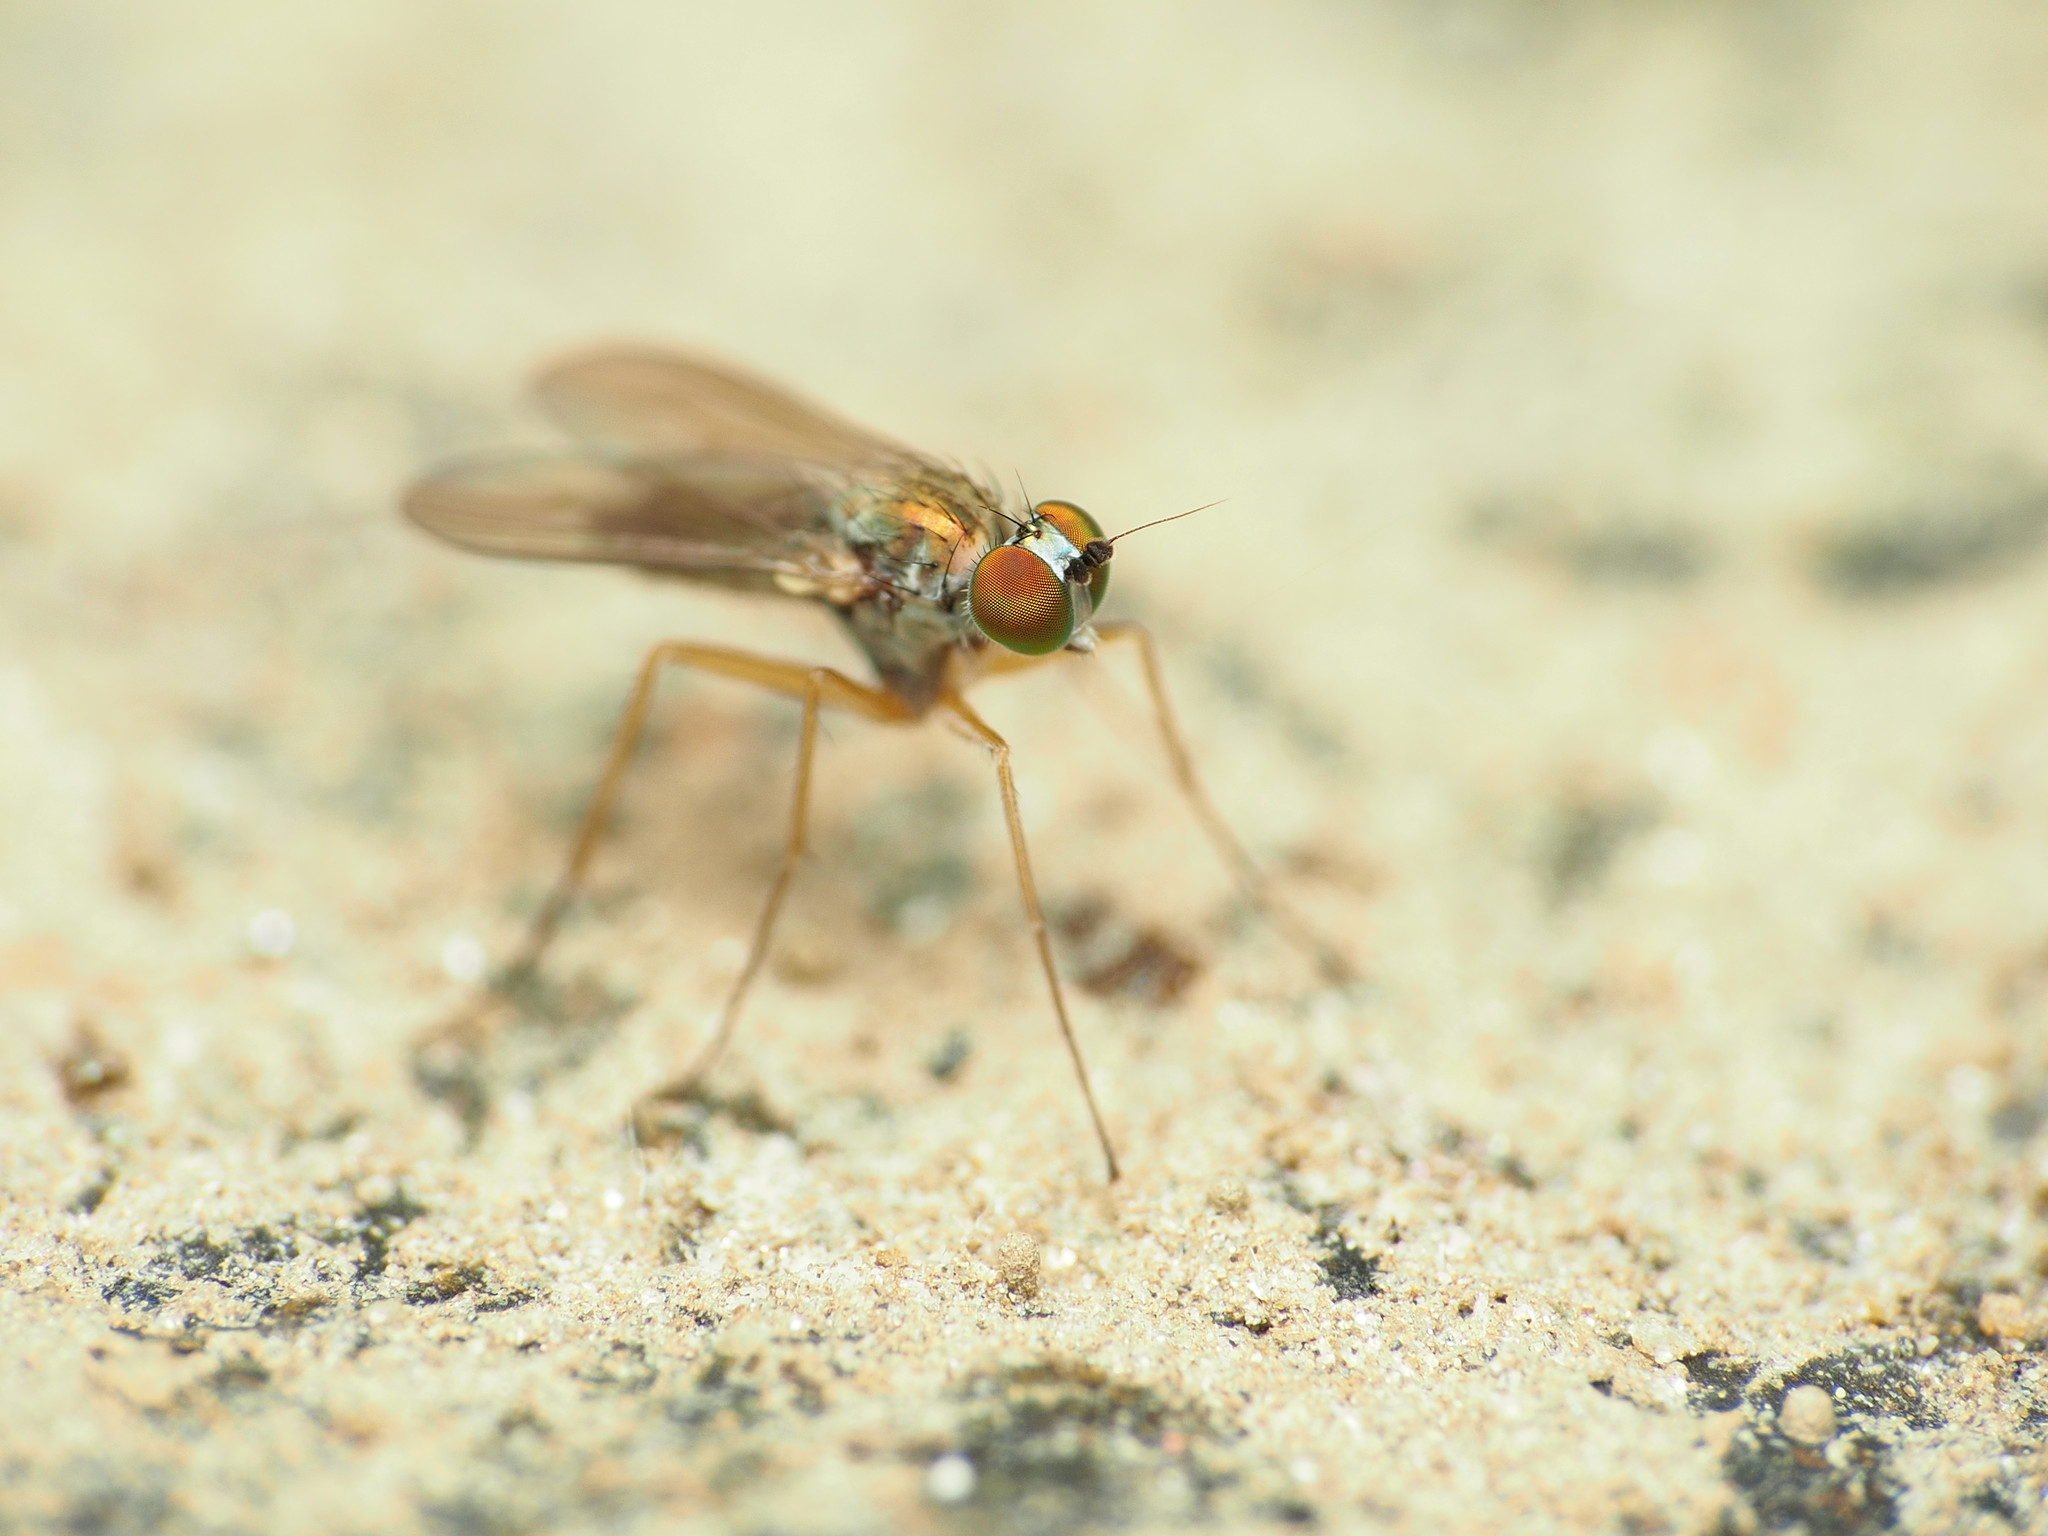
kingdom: Animalia
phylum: Arthropoda
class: Insecta
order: Diptera
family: Dolichopodidae
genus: Chrysotus
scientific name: Chrysotus
